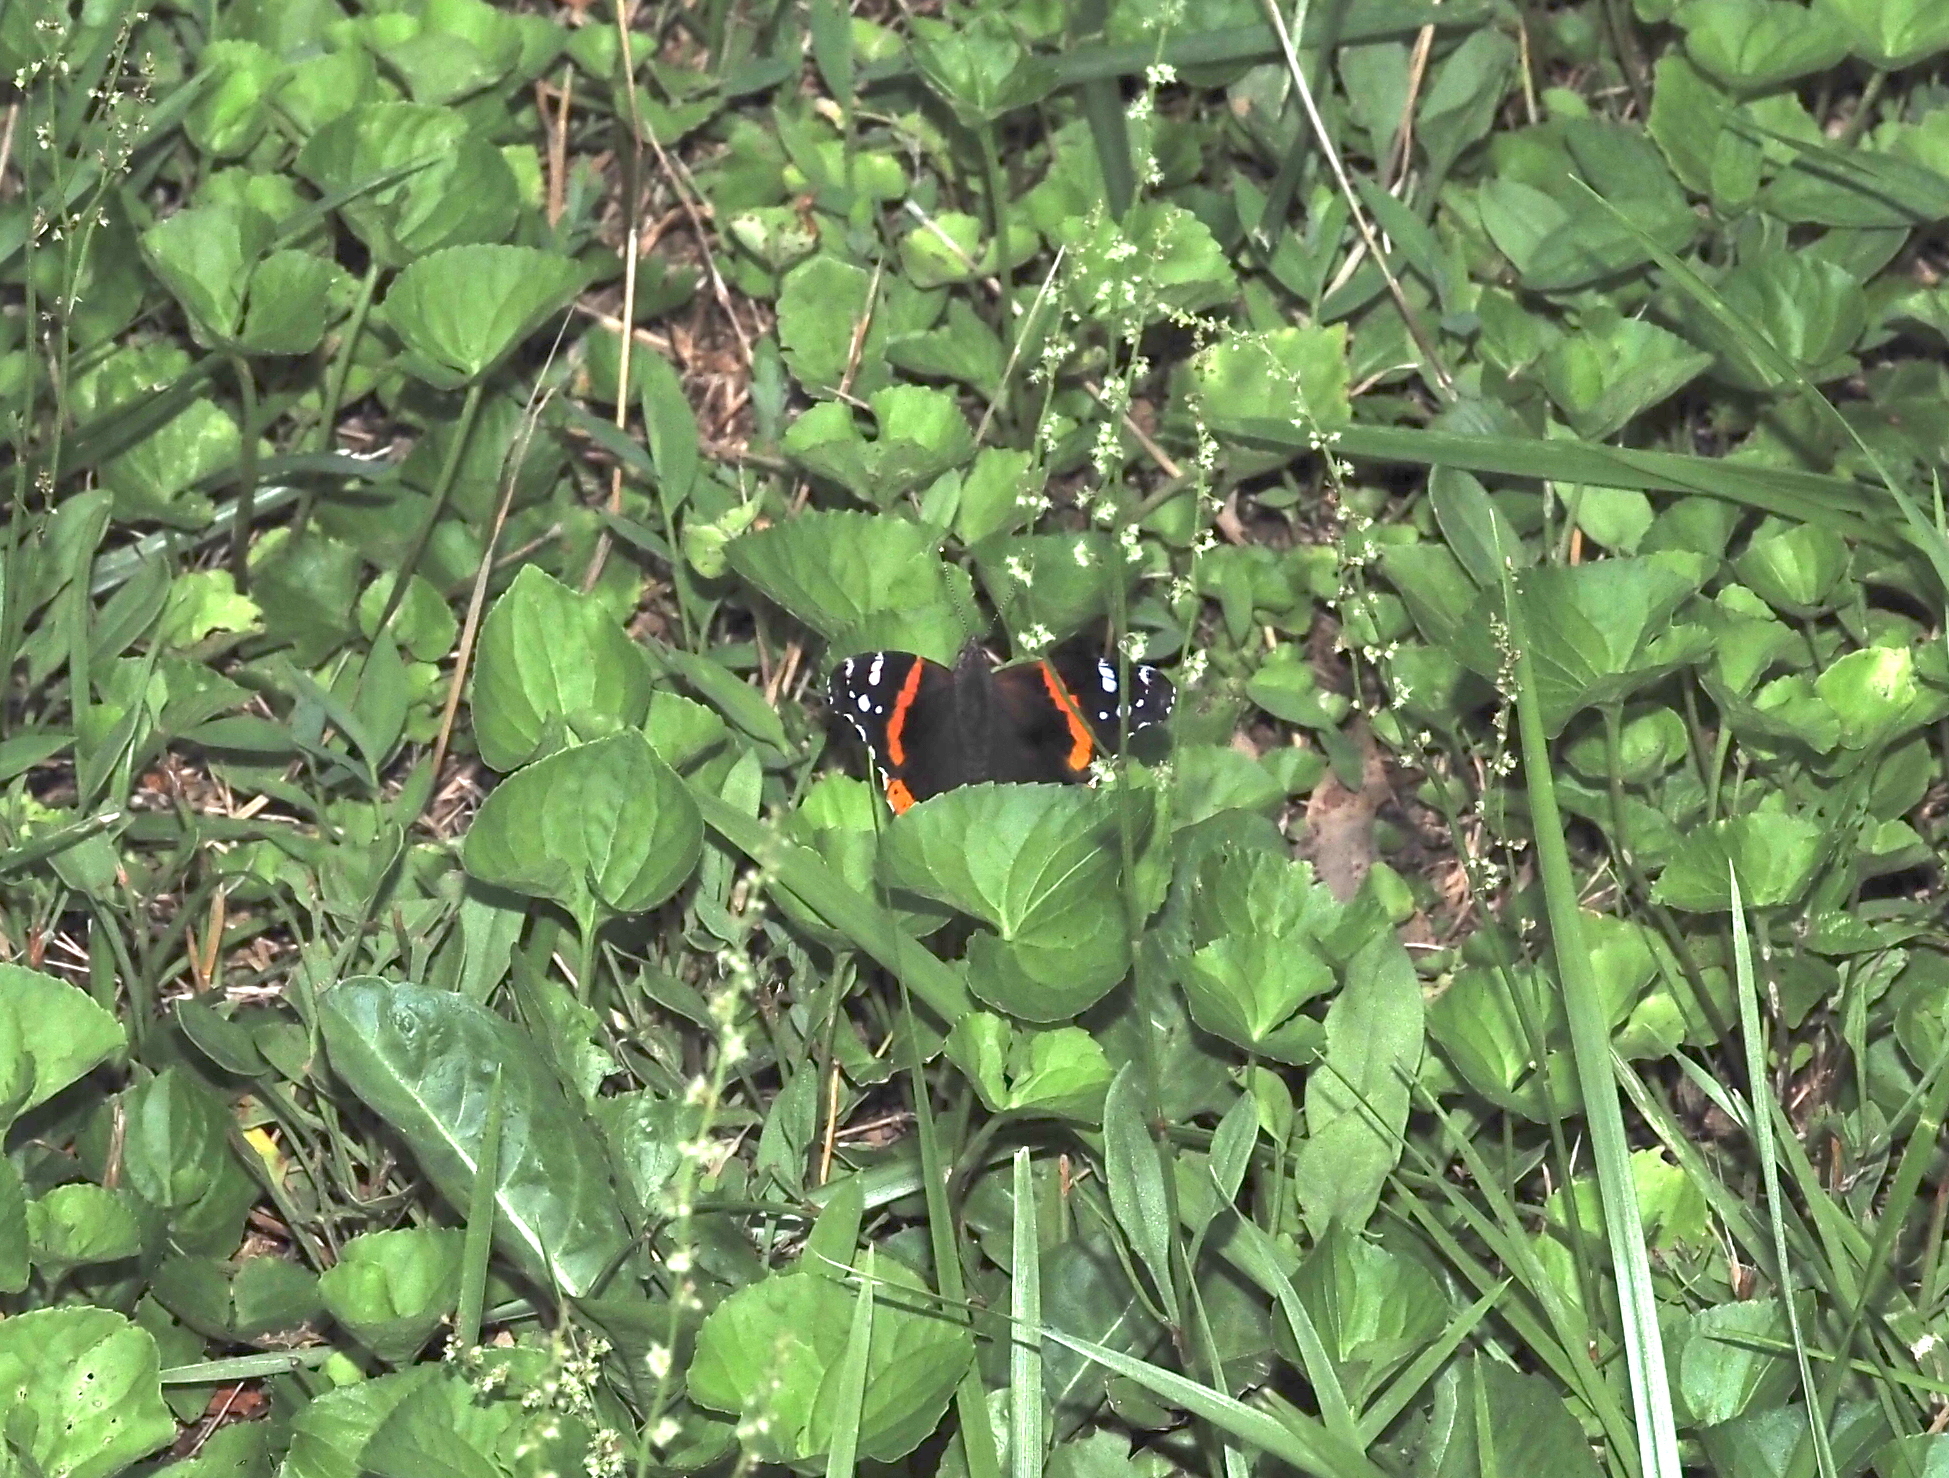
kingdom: Animalia
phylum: Arthropoda
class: Insecta
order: Lepidoptera
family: Nymphalidae
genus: Vanessa
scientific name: Vanessa atalanta
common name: Red admiral
